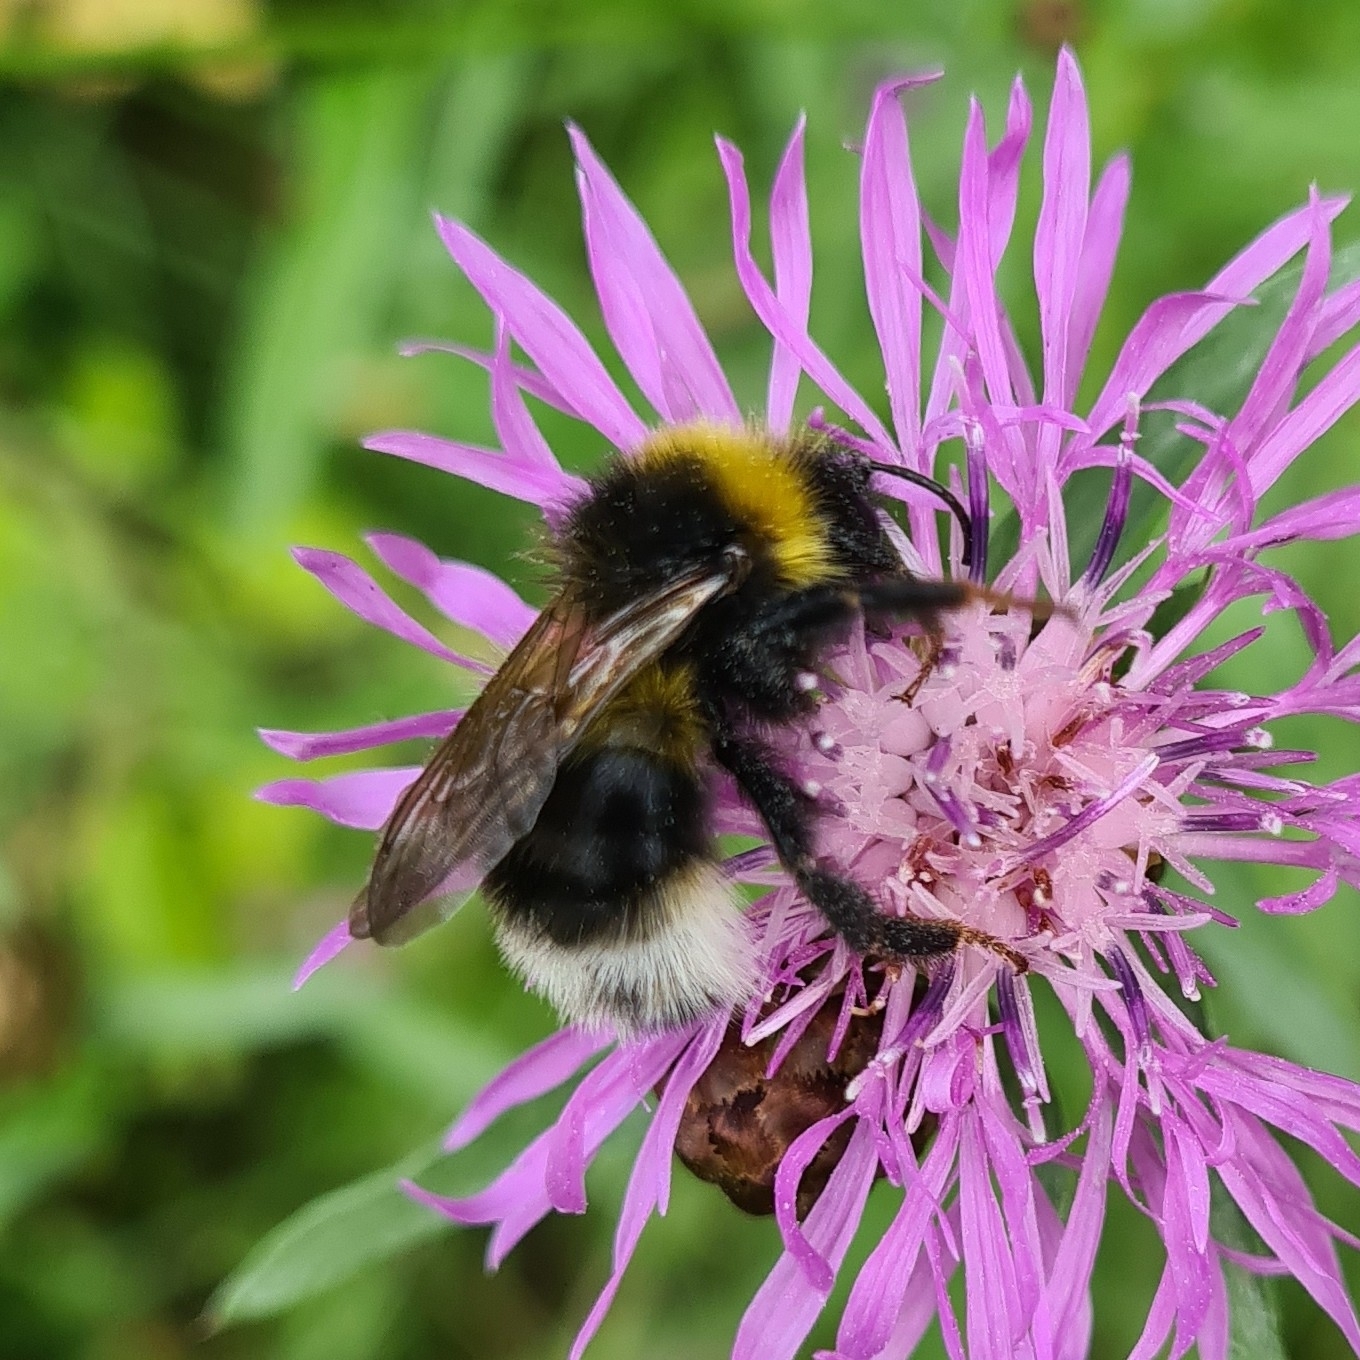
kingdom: Animalia
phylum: Arthropoda
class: Insecta
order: Hymenoptera
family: Apidae
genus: Bombus
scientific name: Bombus bohemicus
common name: Gypsy cuckoo bee
